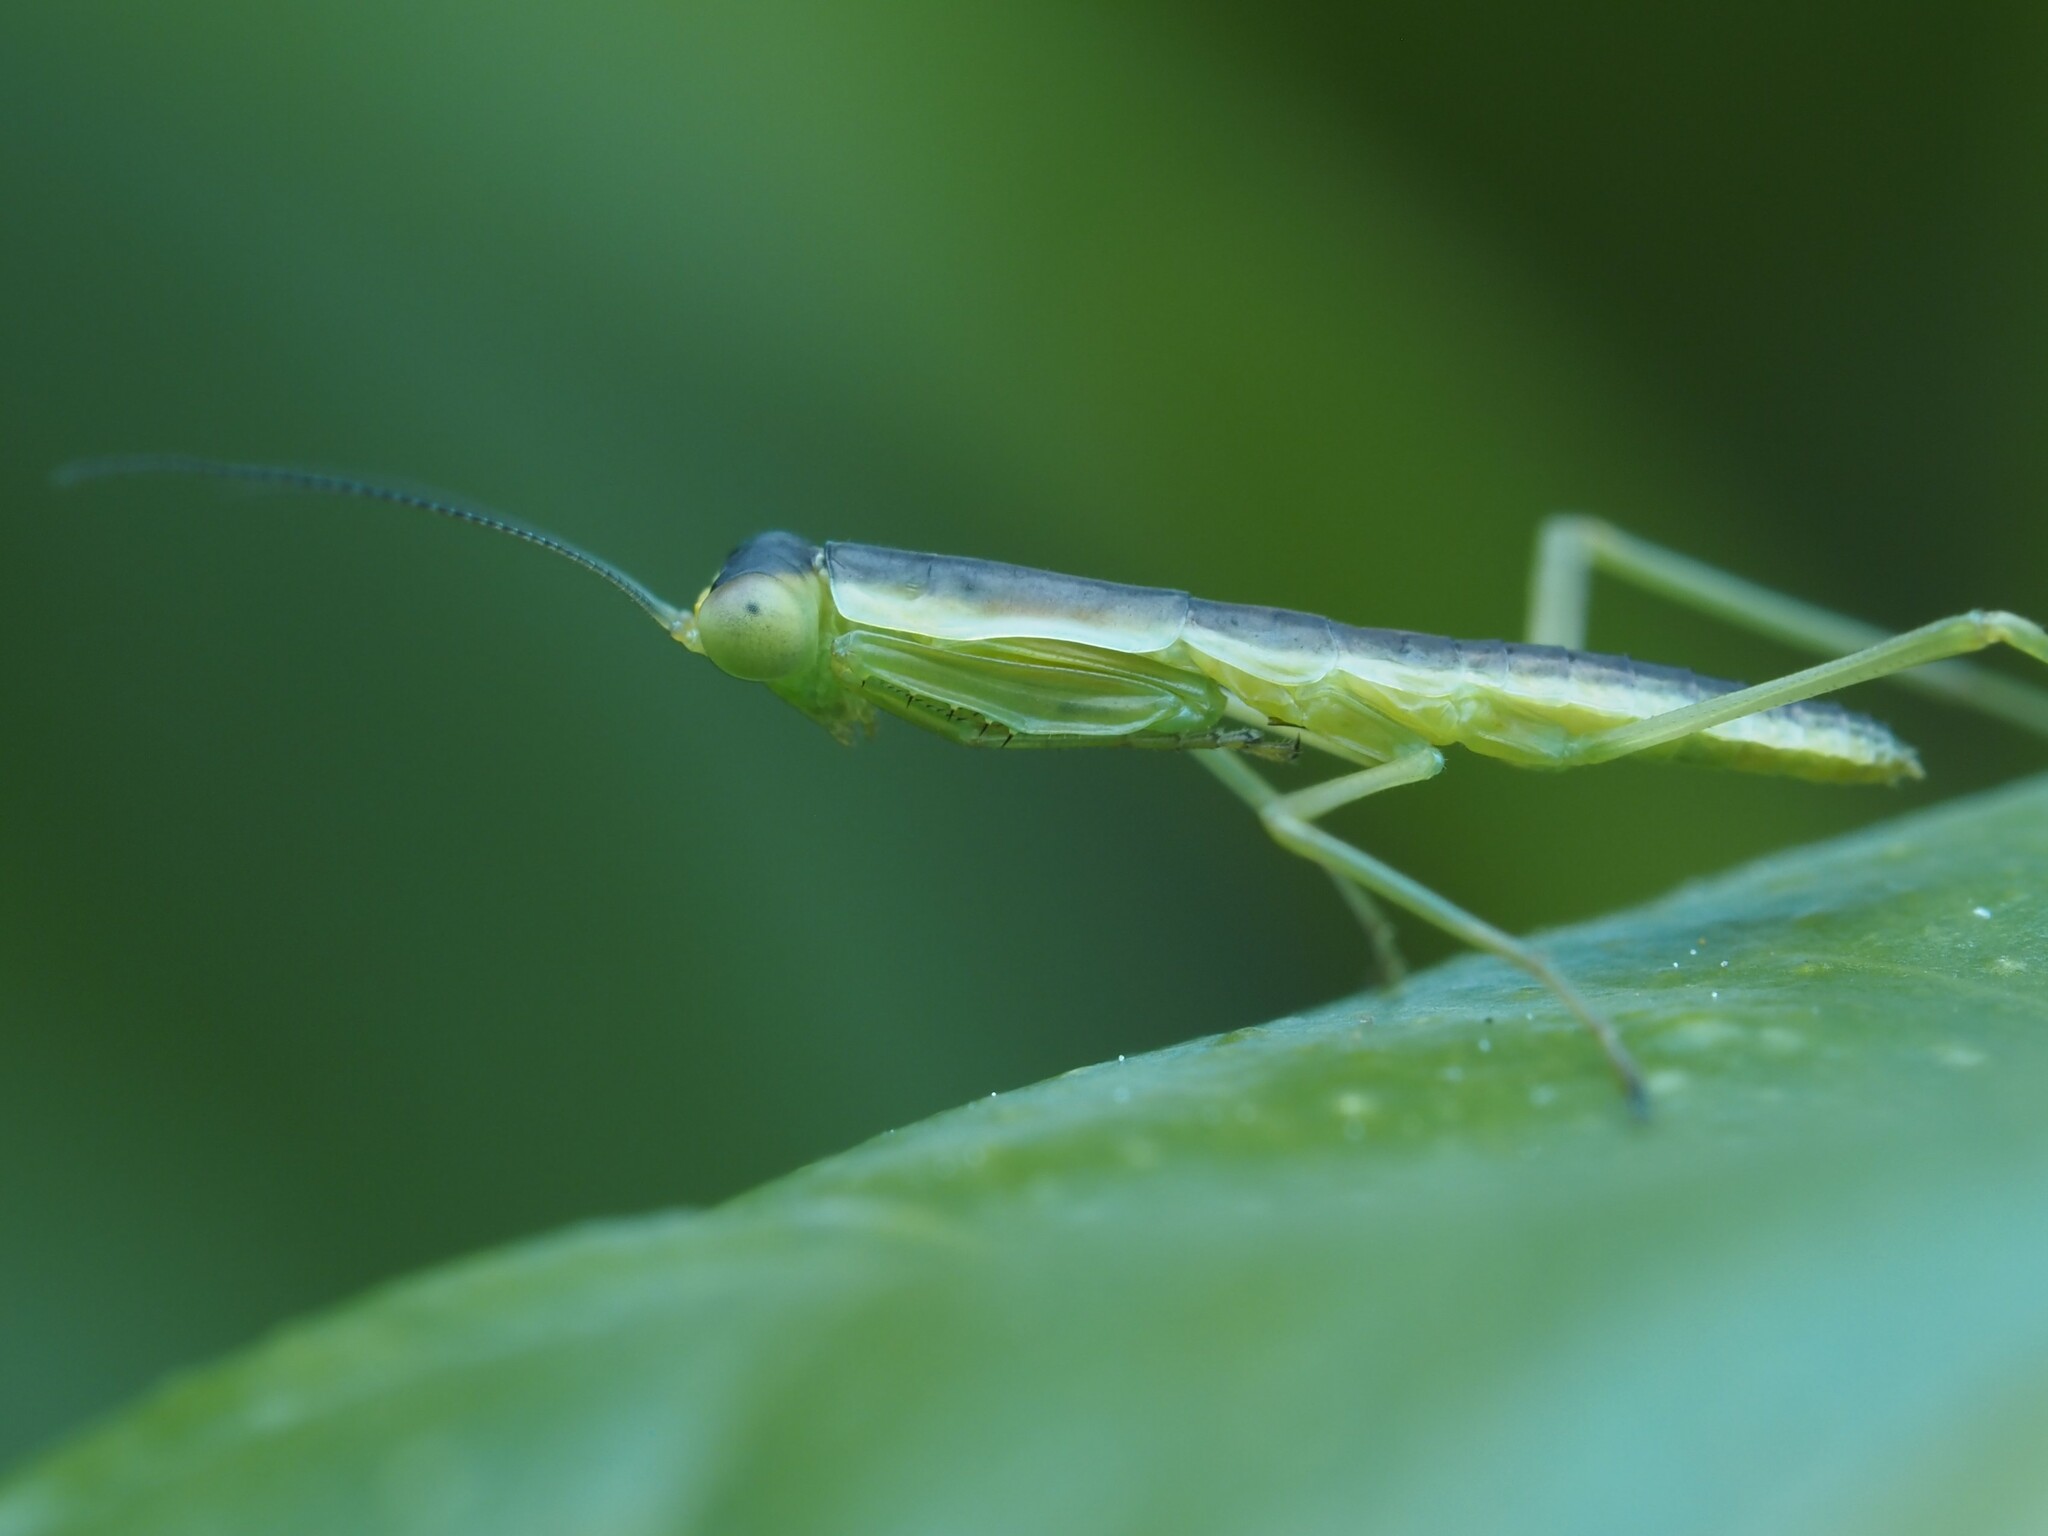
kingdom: Animalia
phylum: Arthropoda
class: Insecta
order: Mantodea
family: Mantidae
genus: Orthodera
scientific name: Orthodera novaezealandiae
